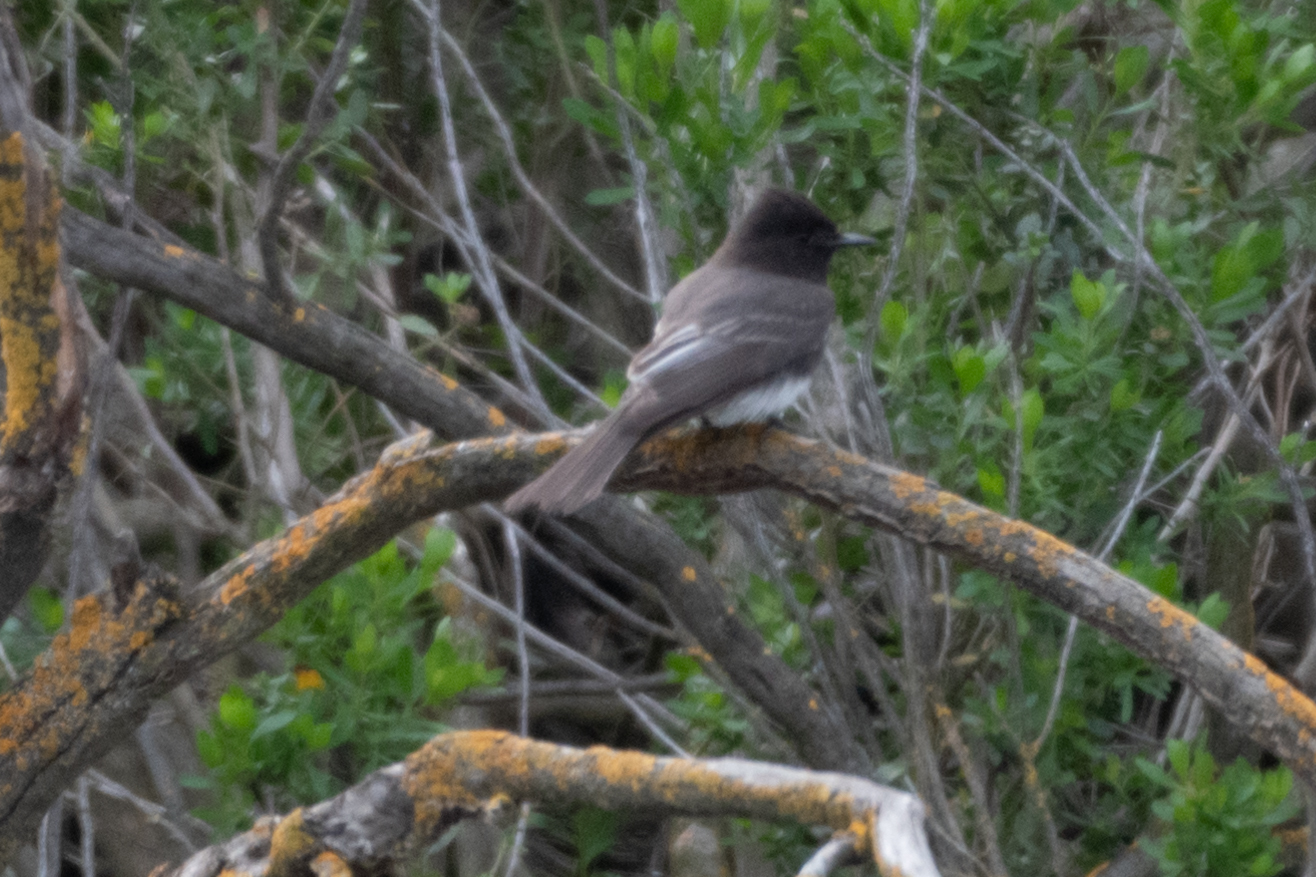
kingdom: Animalia
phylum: Chordata
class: Aves
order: Passeriformes
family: Tyrannidae
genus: Sayornis
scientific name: Sayornis nigricans
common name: Black phoebe
